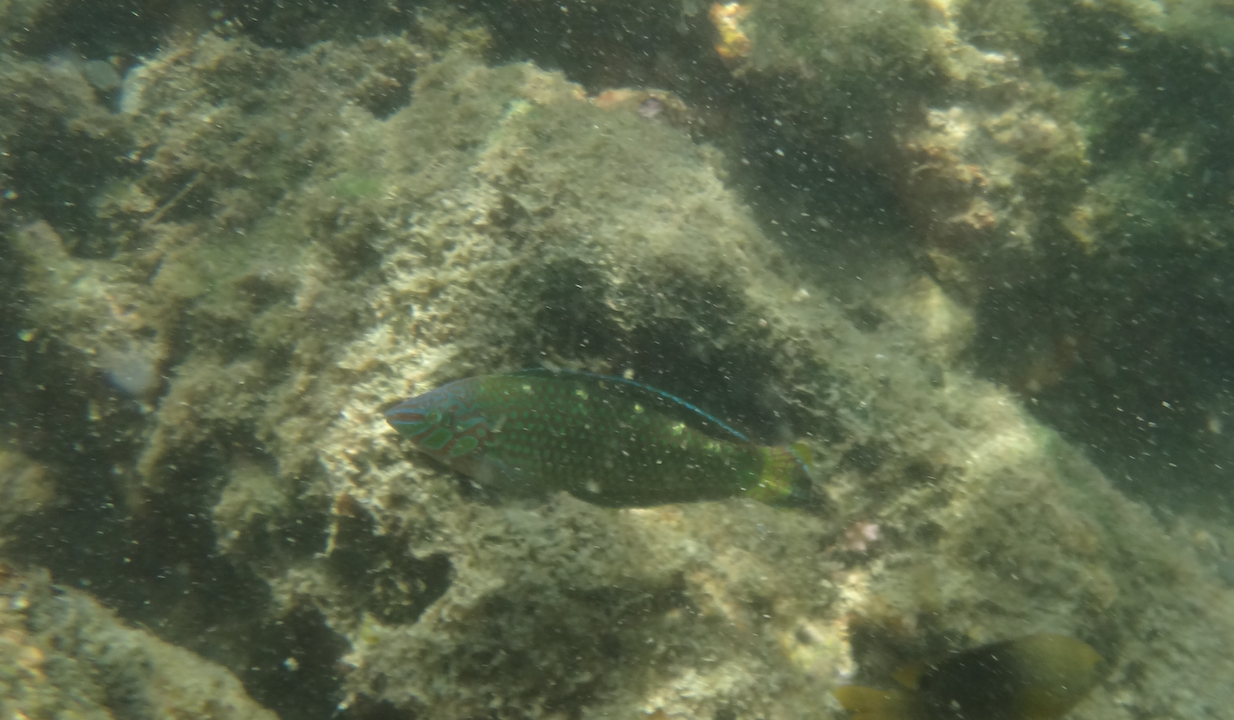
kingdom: Animalia
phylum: Chordata
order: Perciformes
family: Labridae
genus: Halichoeres
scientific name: Halichoeres argus
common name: Argus wrasse
